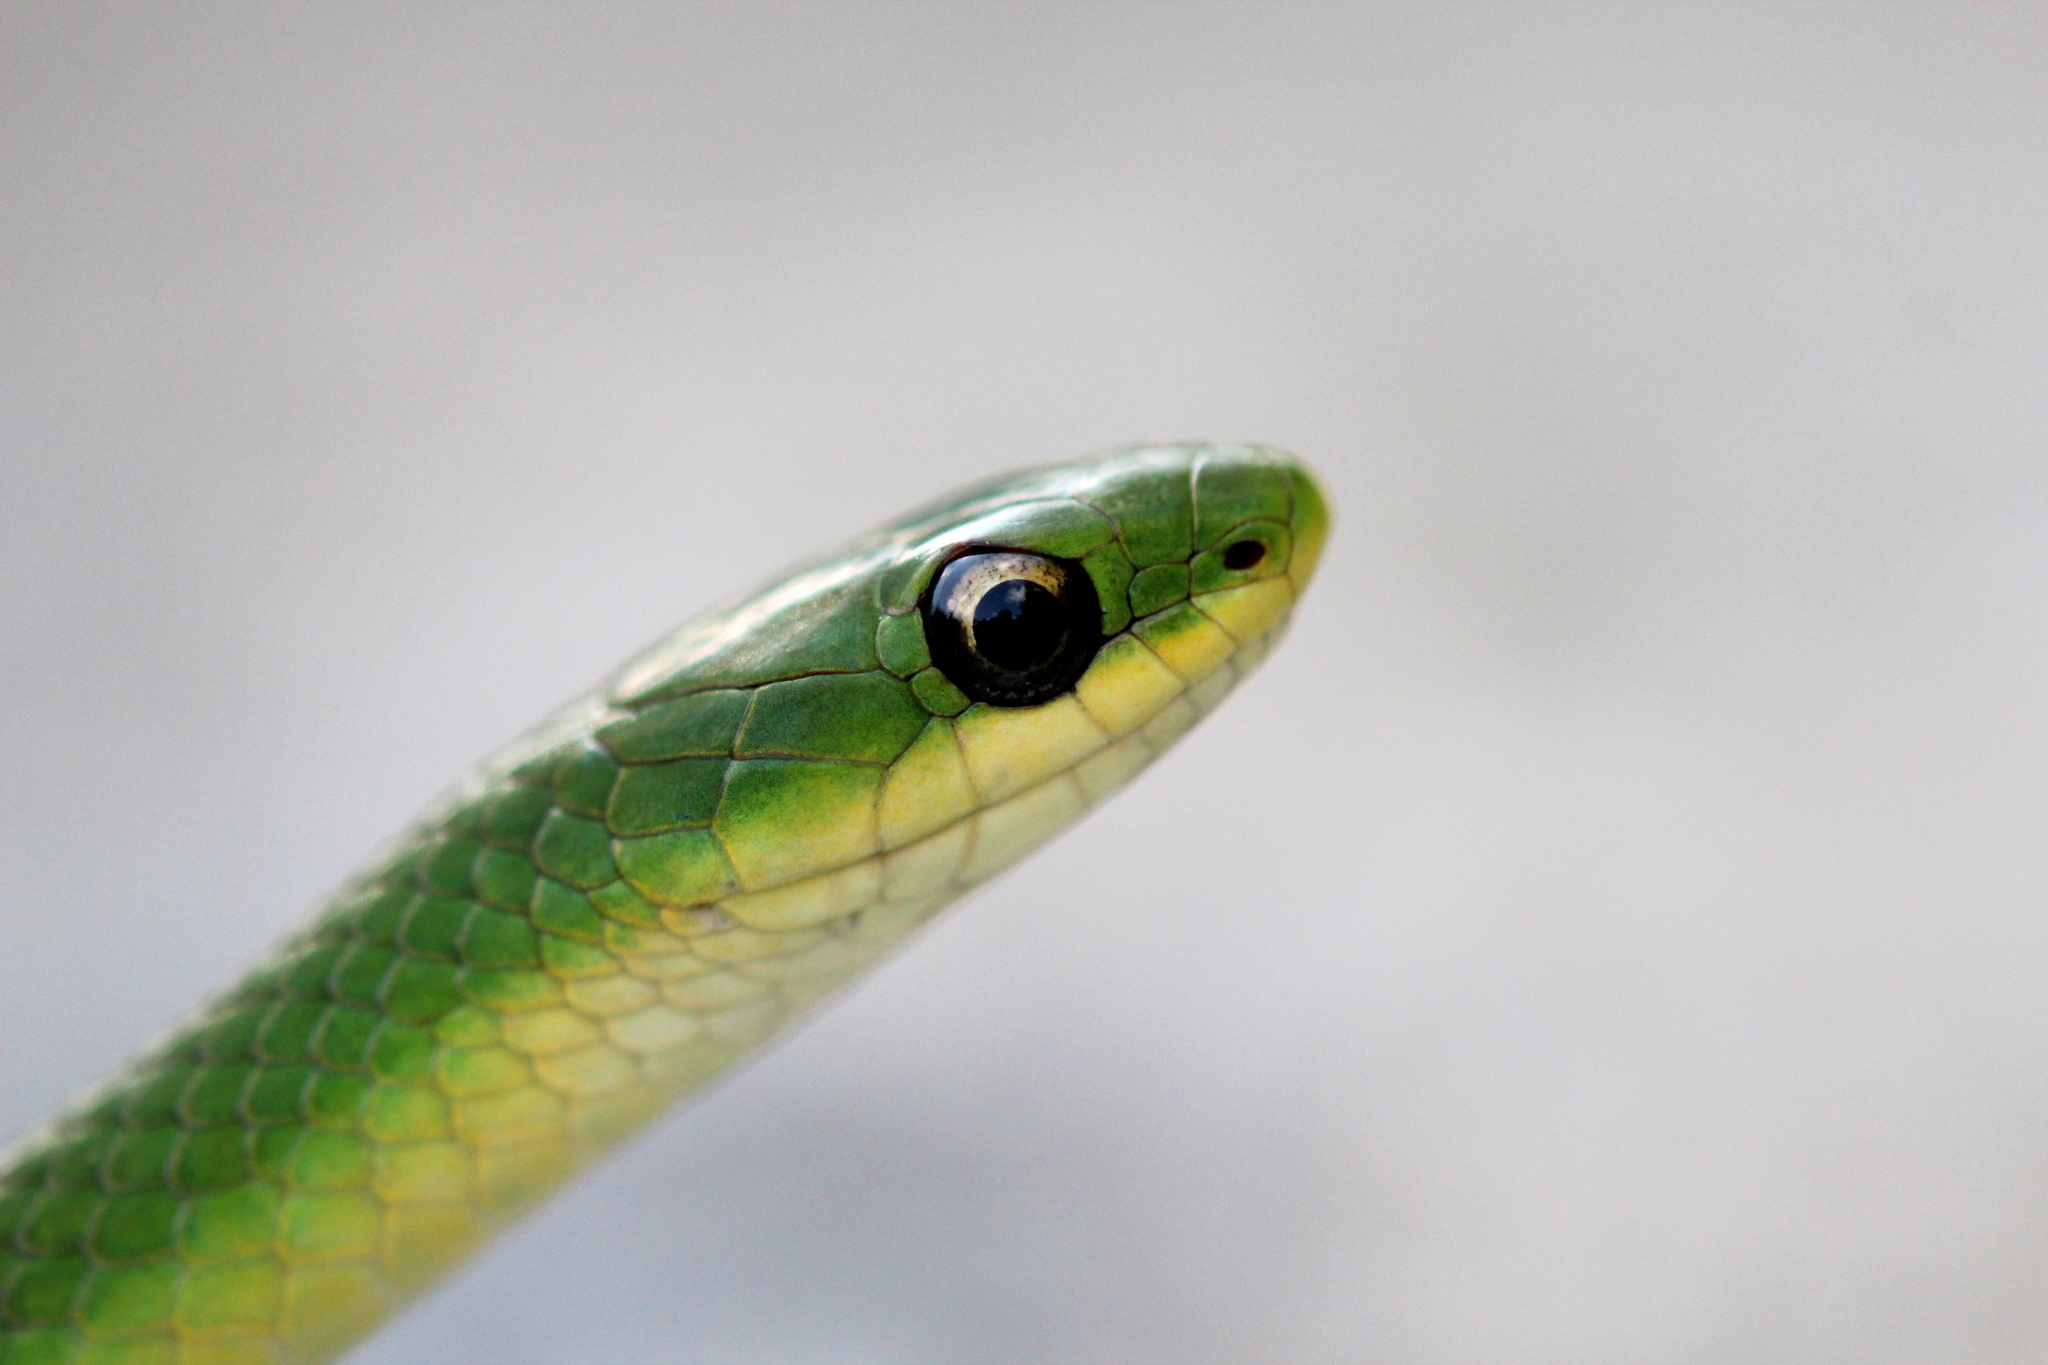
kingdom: Animalia
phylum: Chordata
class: Squamata
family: Colubridae
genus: Opheodrys
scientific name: Opheodrys vernalis
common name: Smooth green snake
